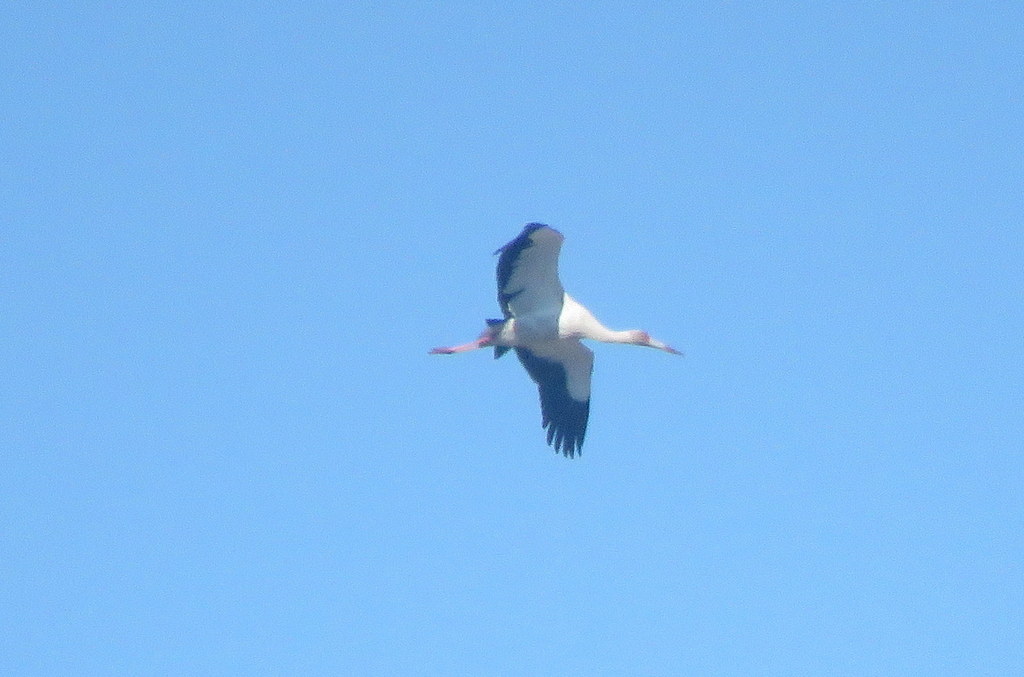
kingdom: Animalia
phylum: Chordata
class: Aves
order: Ciconiiformes
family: Ciconiidae
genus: Ciconia
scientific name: Ciconia maguari
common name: Maguari stork
